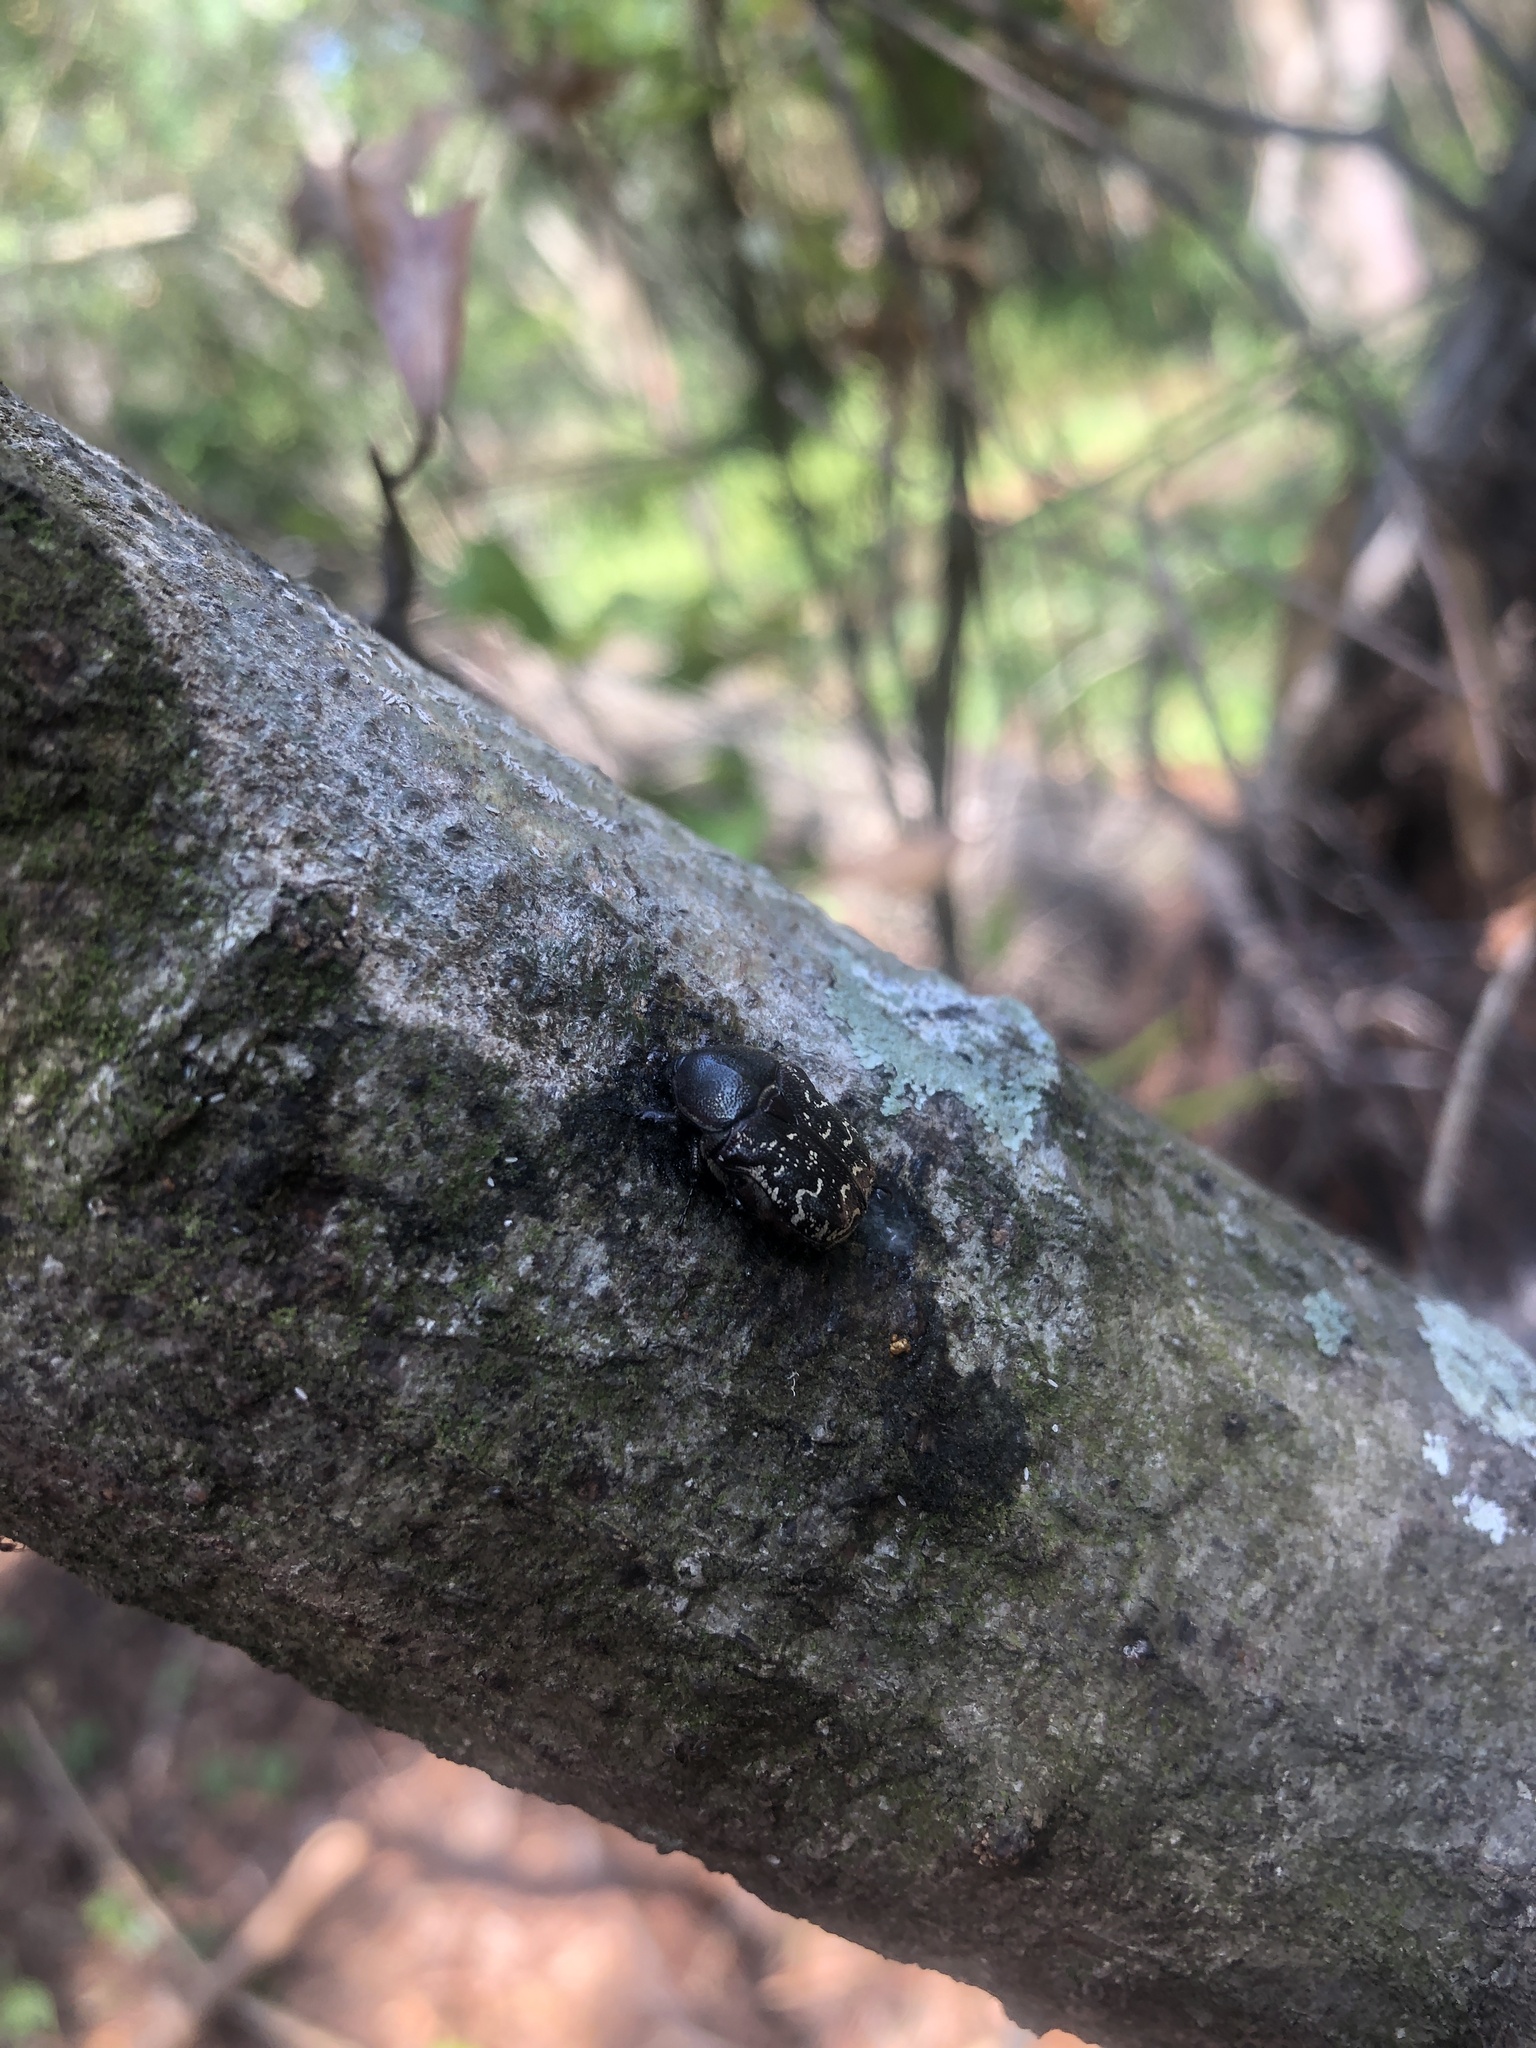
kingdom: Animalia
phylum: Arthropoda
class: Insecta
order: Coleoptera
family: Scarabaeidae
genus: Euphoria
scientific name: Euphoria sepulcralis
